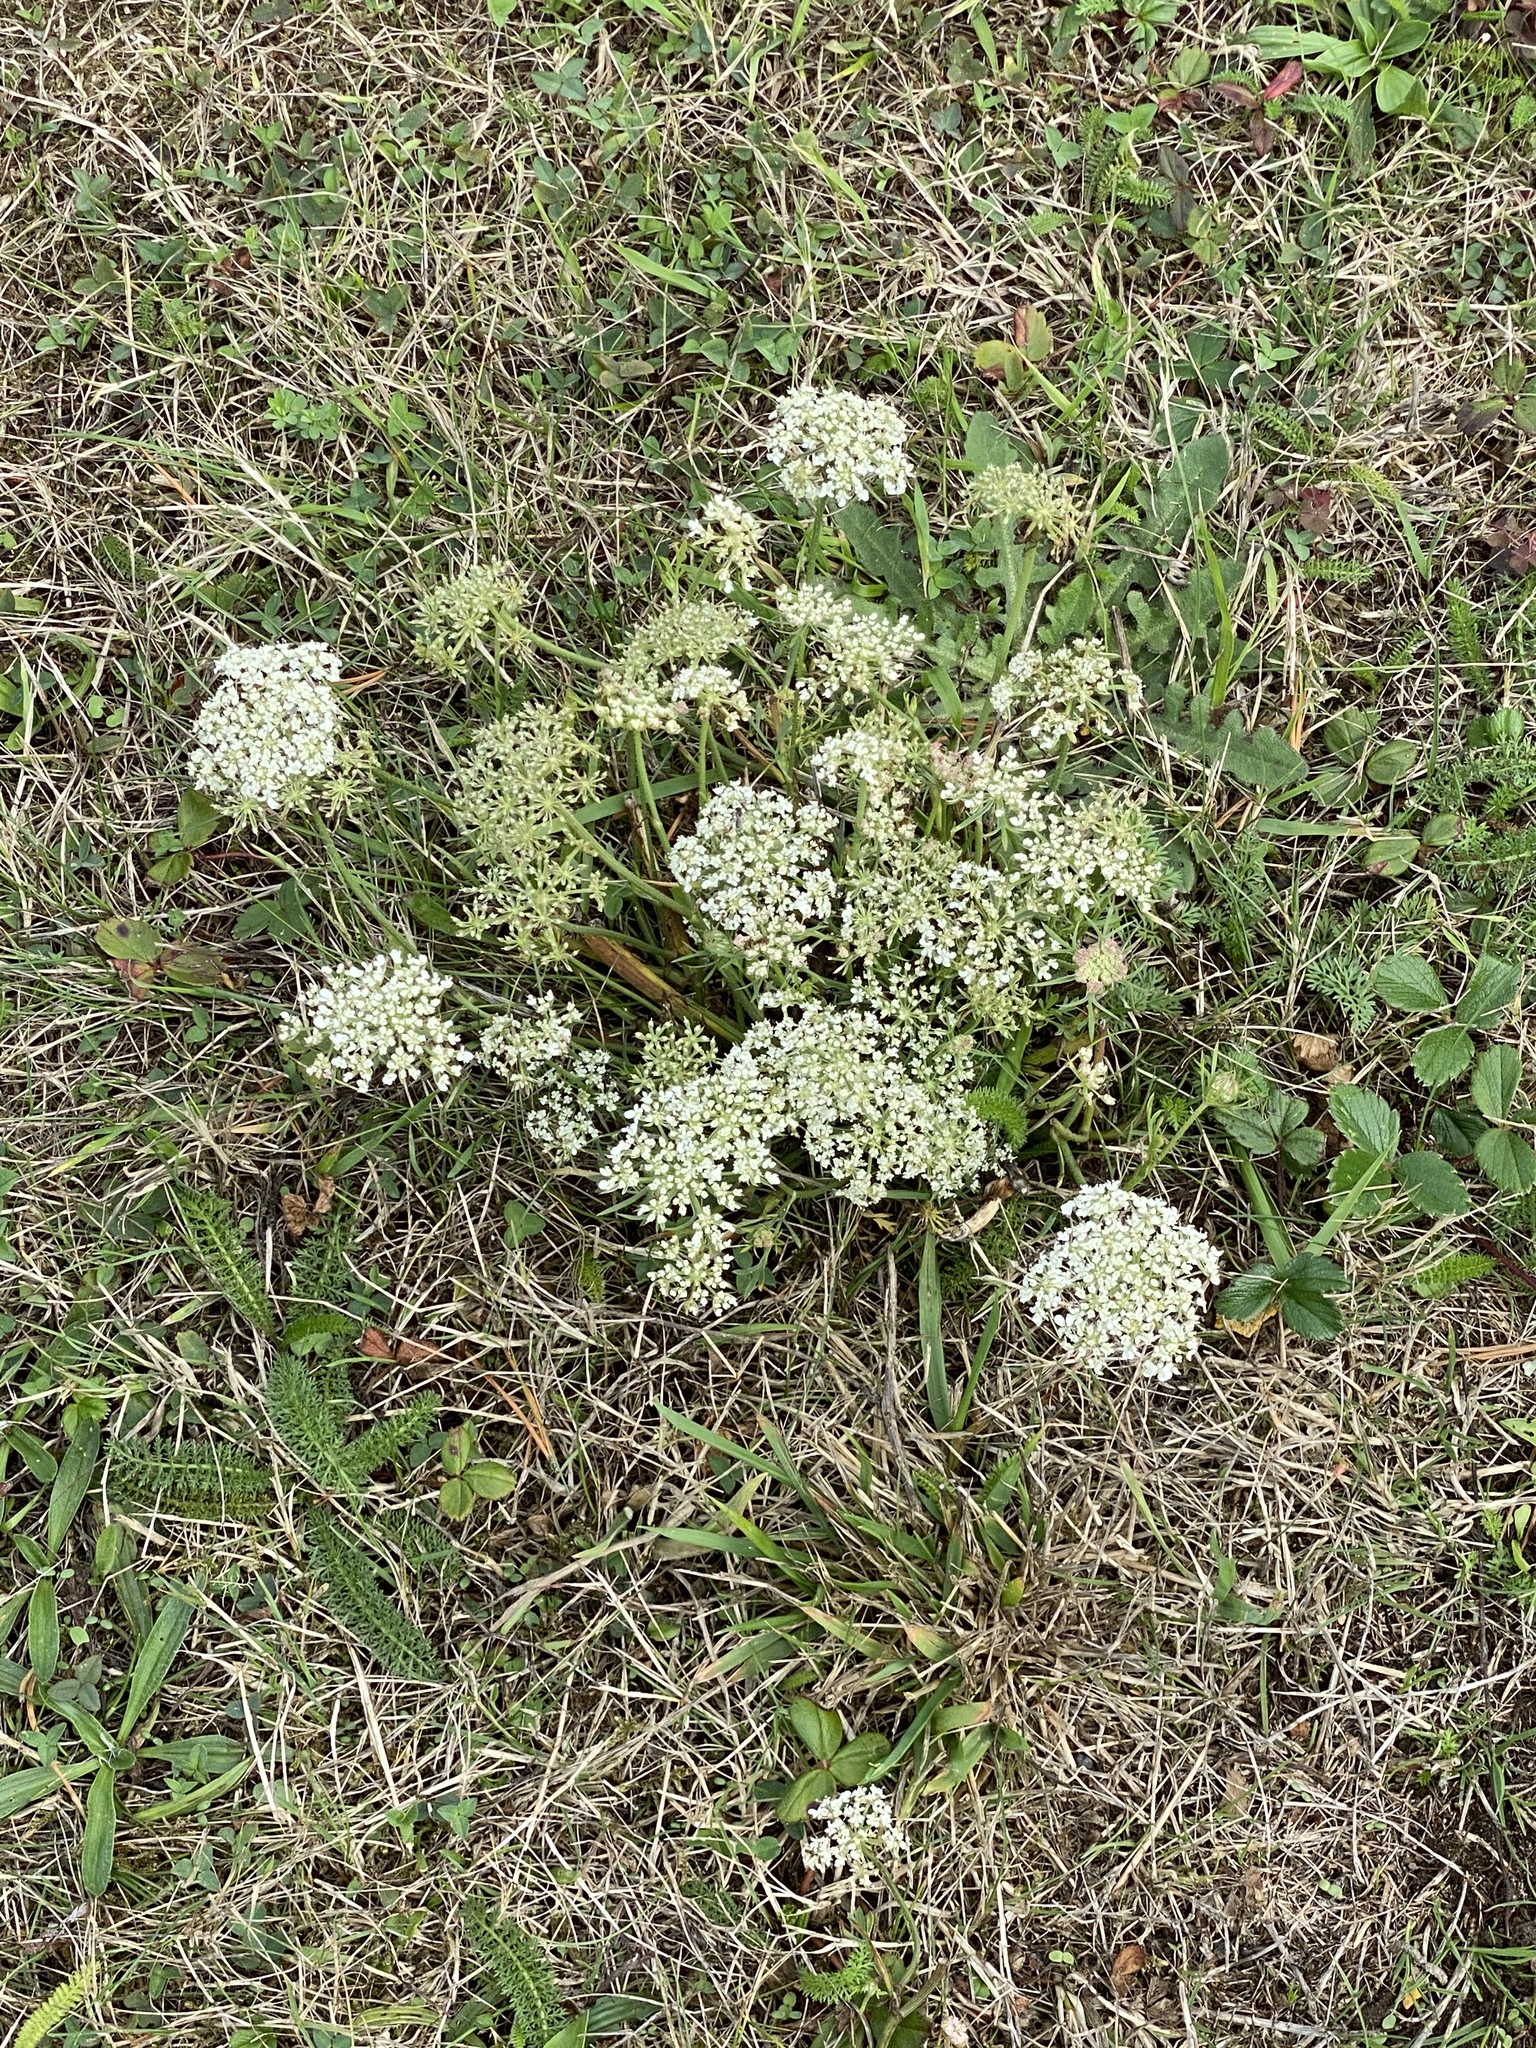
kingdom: Plantae
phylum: Tracheophyta
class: Magnoliopsida
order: Apiales
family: Apiaceae
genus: Daucus
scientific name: Daucus carota
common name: Wild carrot
